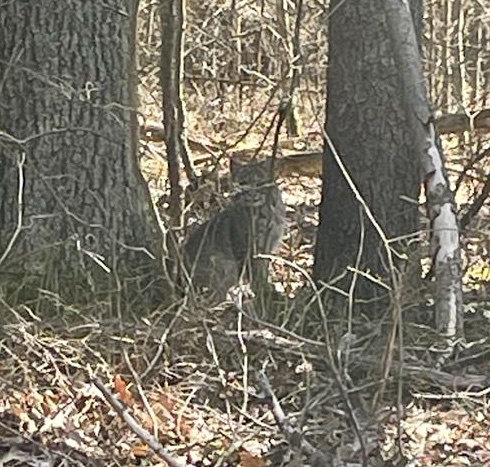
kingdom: Animalia
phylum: Chordata
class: Mammalia
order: Carnivora
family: Felidae
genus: Lynx
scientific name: Lynx rufus
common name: Bobcat
